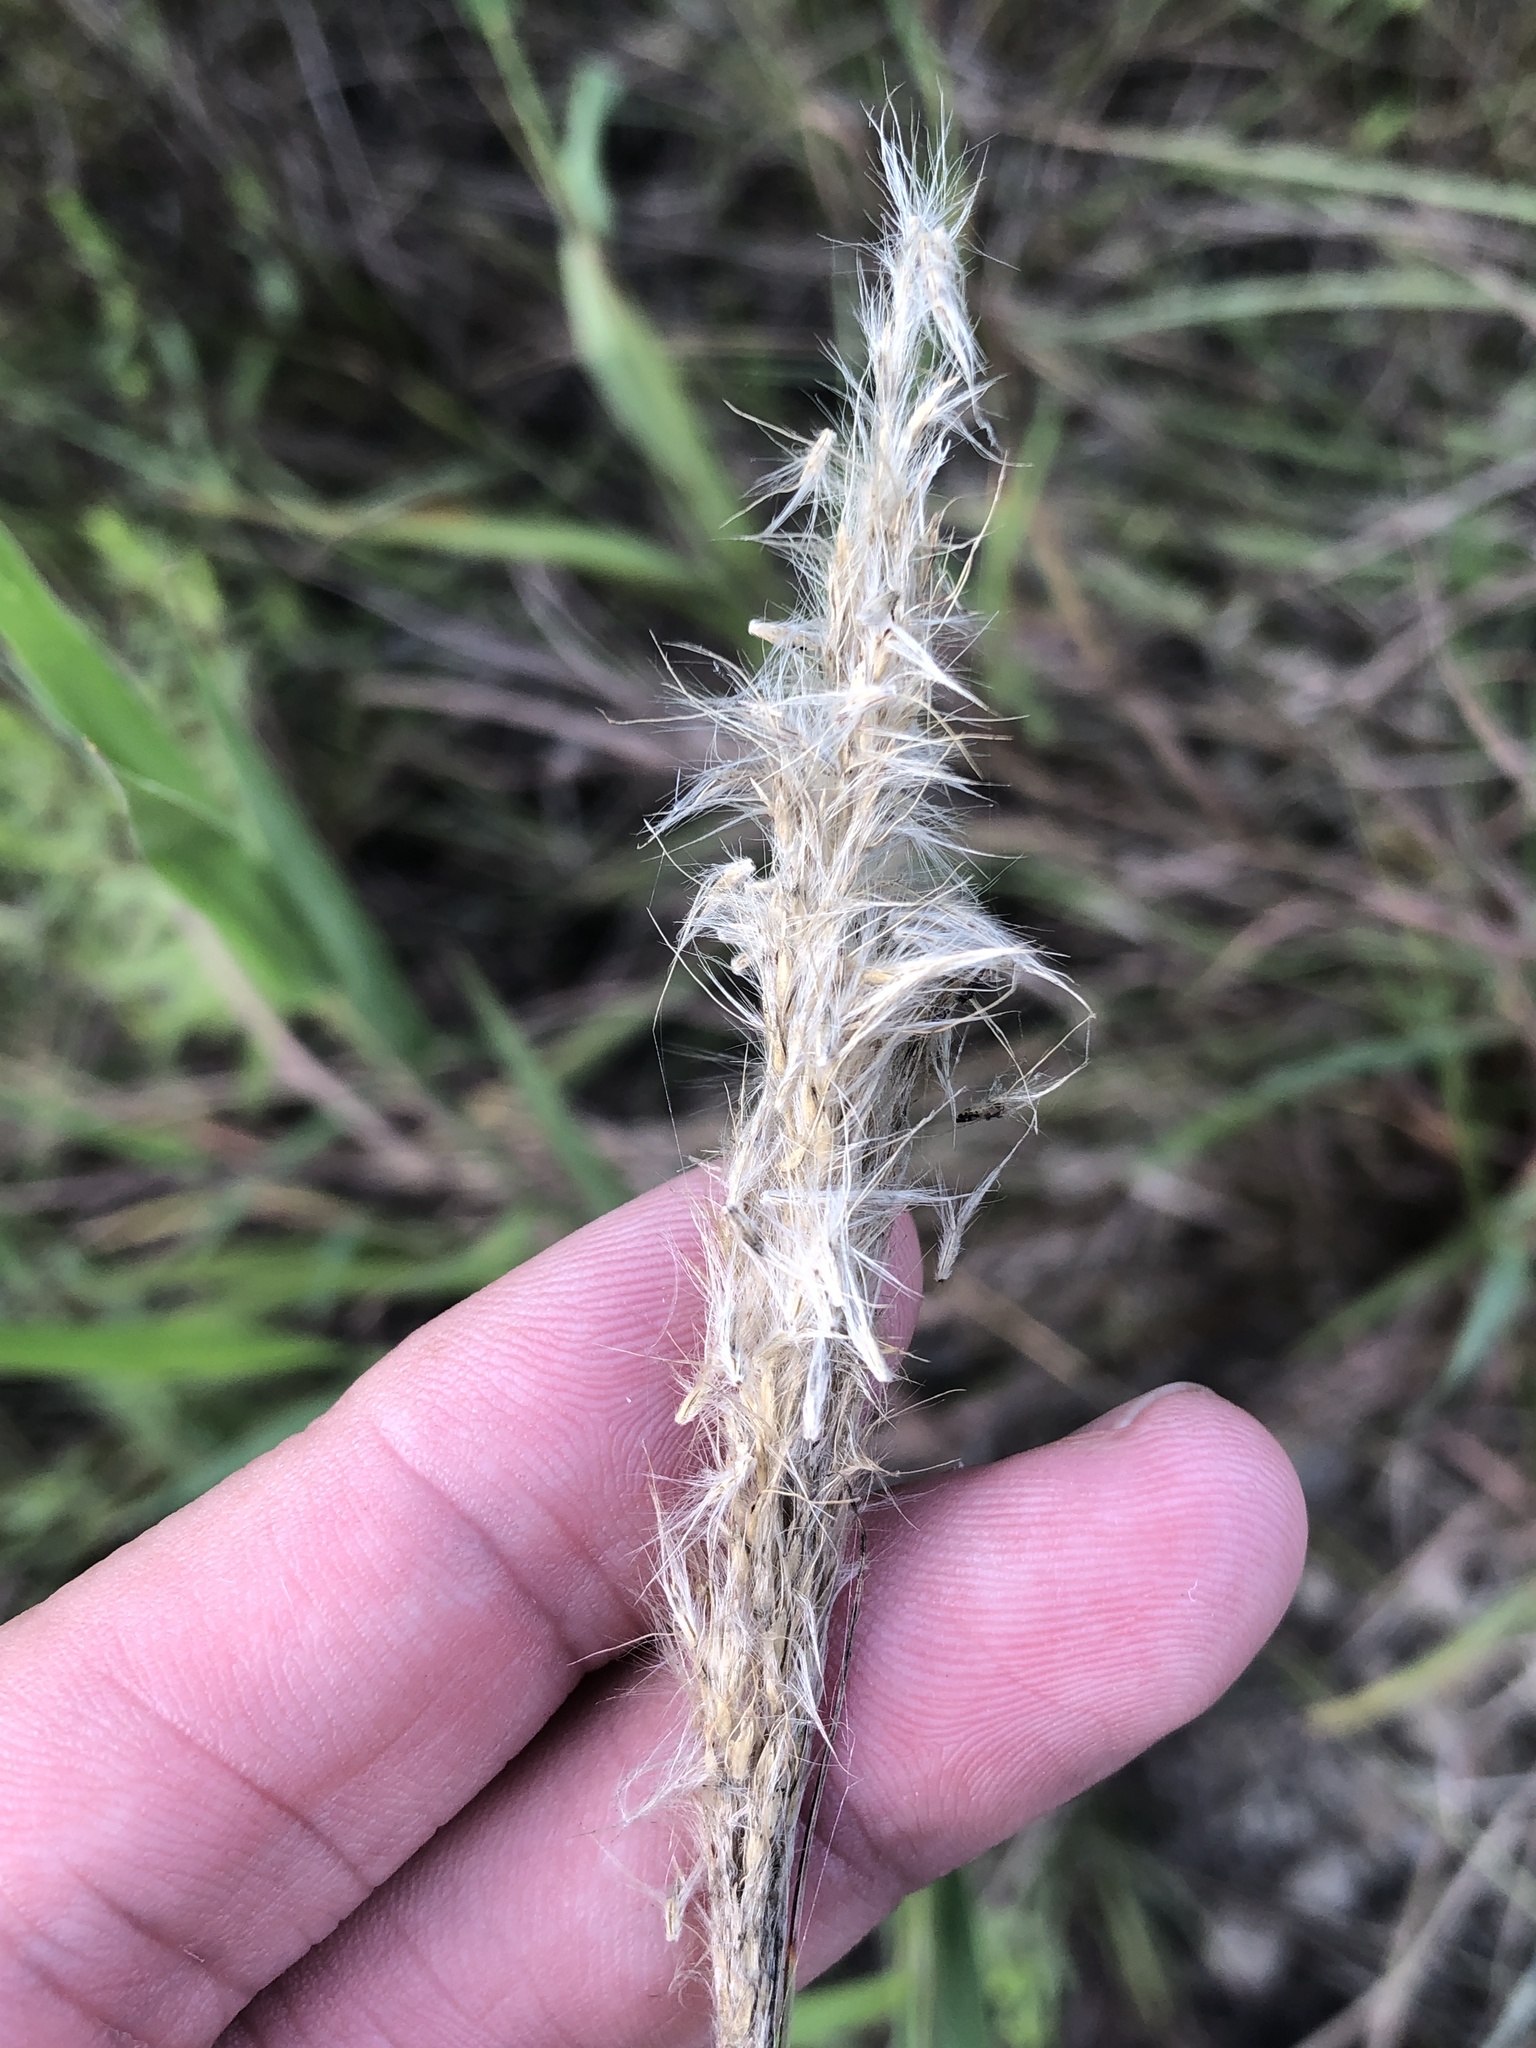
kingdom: Plantae
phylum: Tracheophyta
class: Liliopsida
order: Poales
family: Poaceae
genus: Bothriochloa
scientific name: Bothriochloa torreyana
